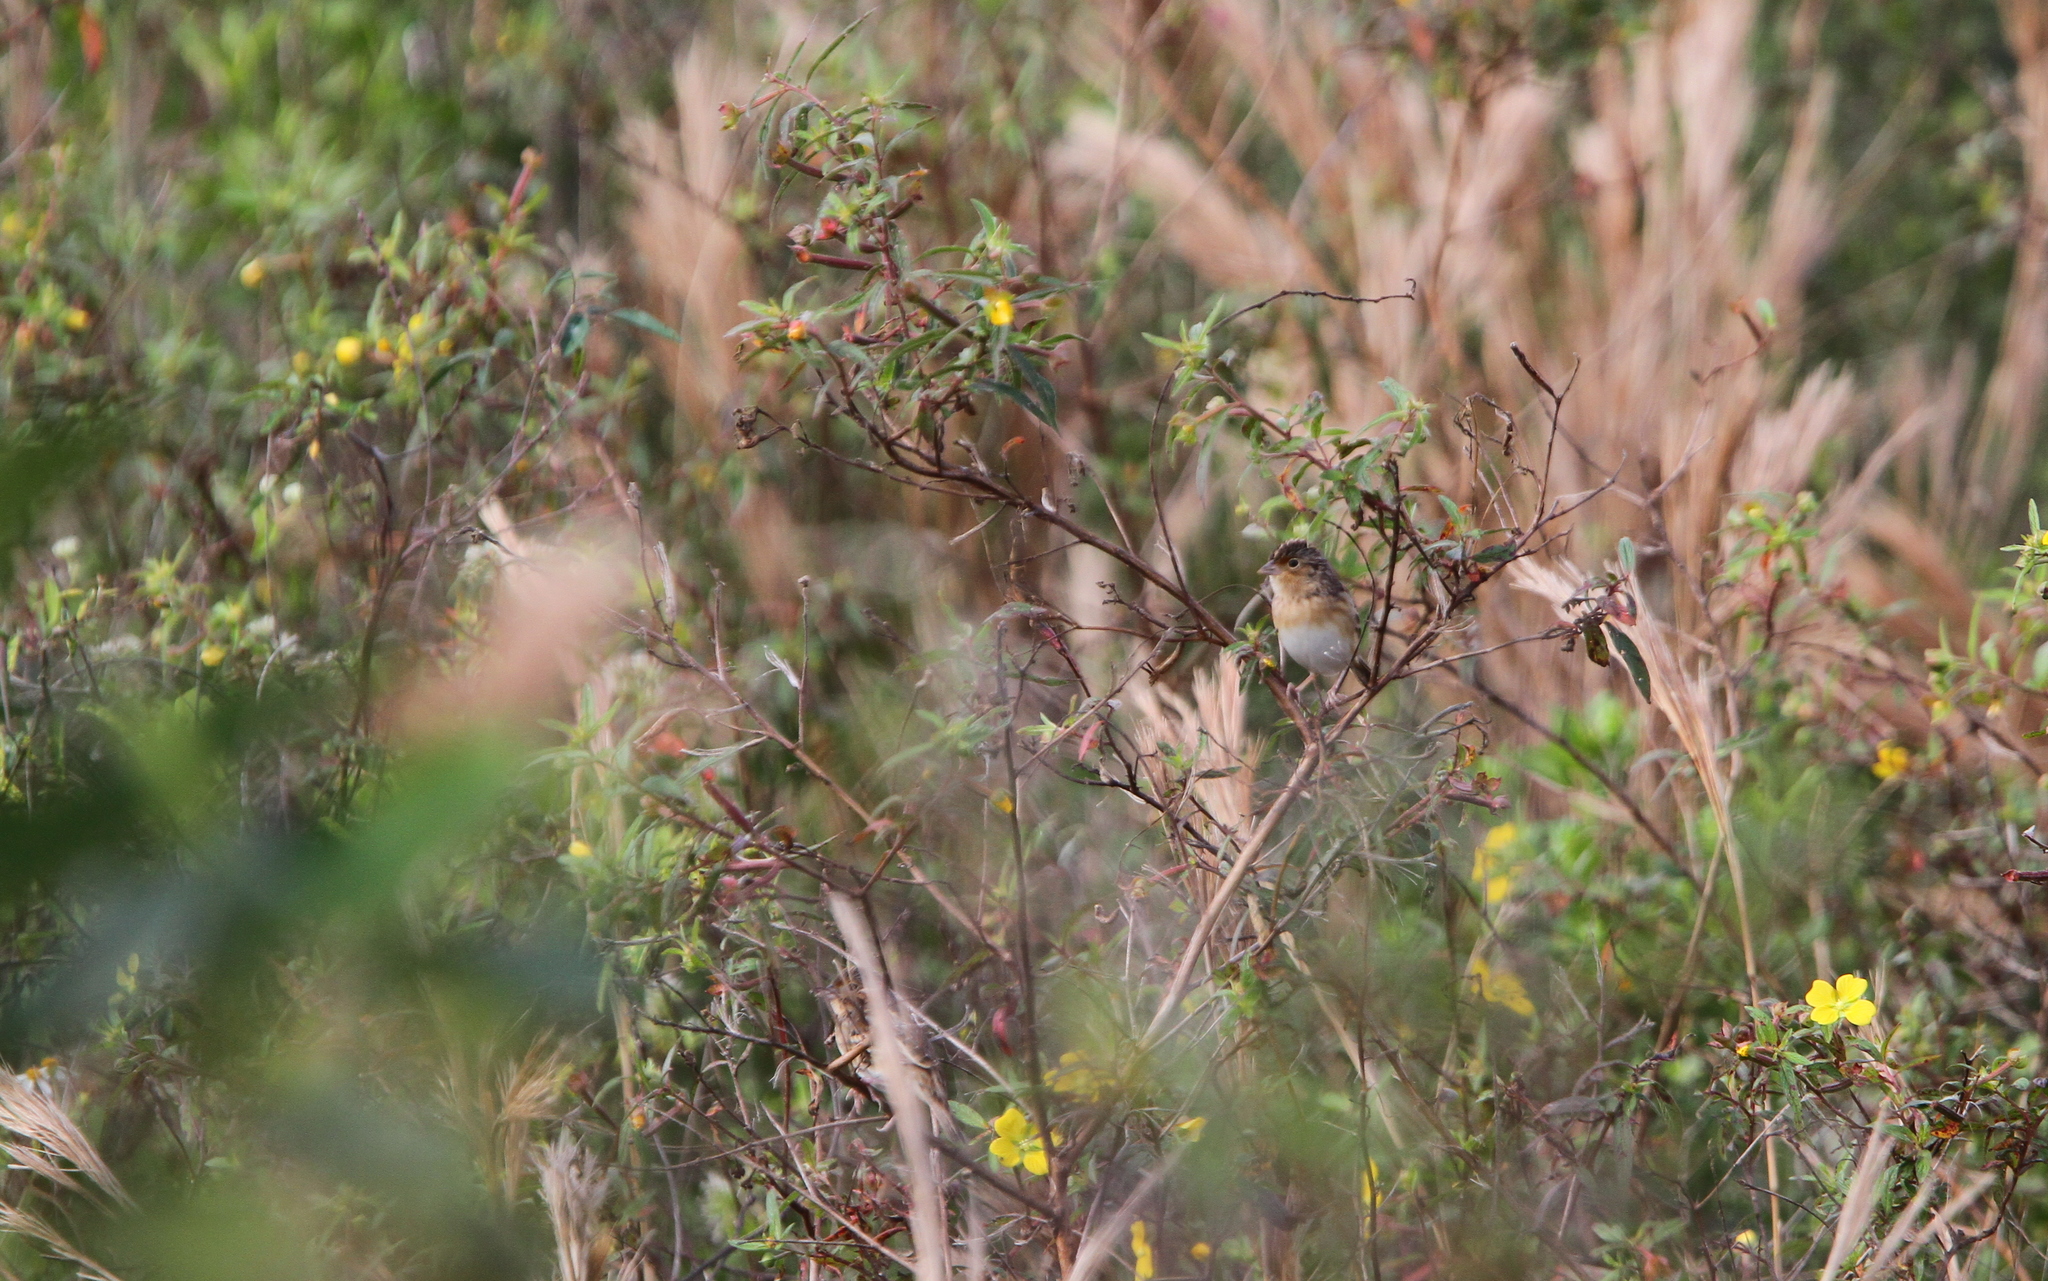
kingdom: Animalia
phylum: Chordata
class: Aves
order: Passeriformes
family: Passerellidae
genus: Ammodramus
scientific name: Ammodramus savannarum
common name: Grasshopper sparrow
